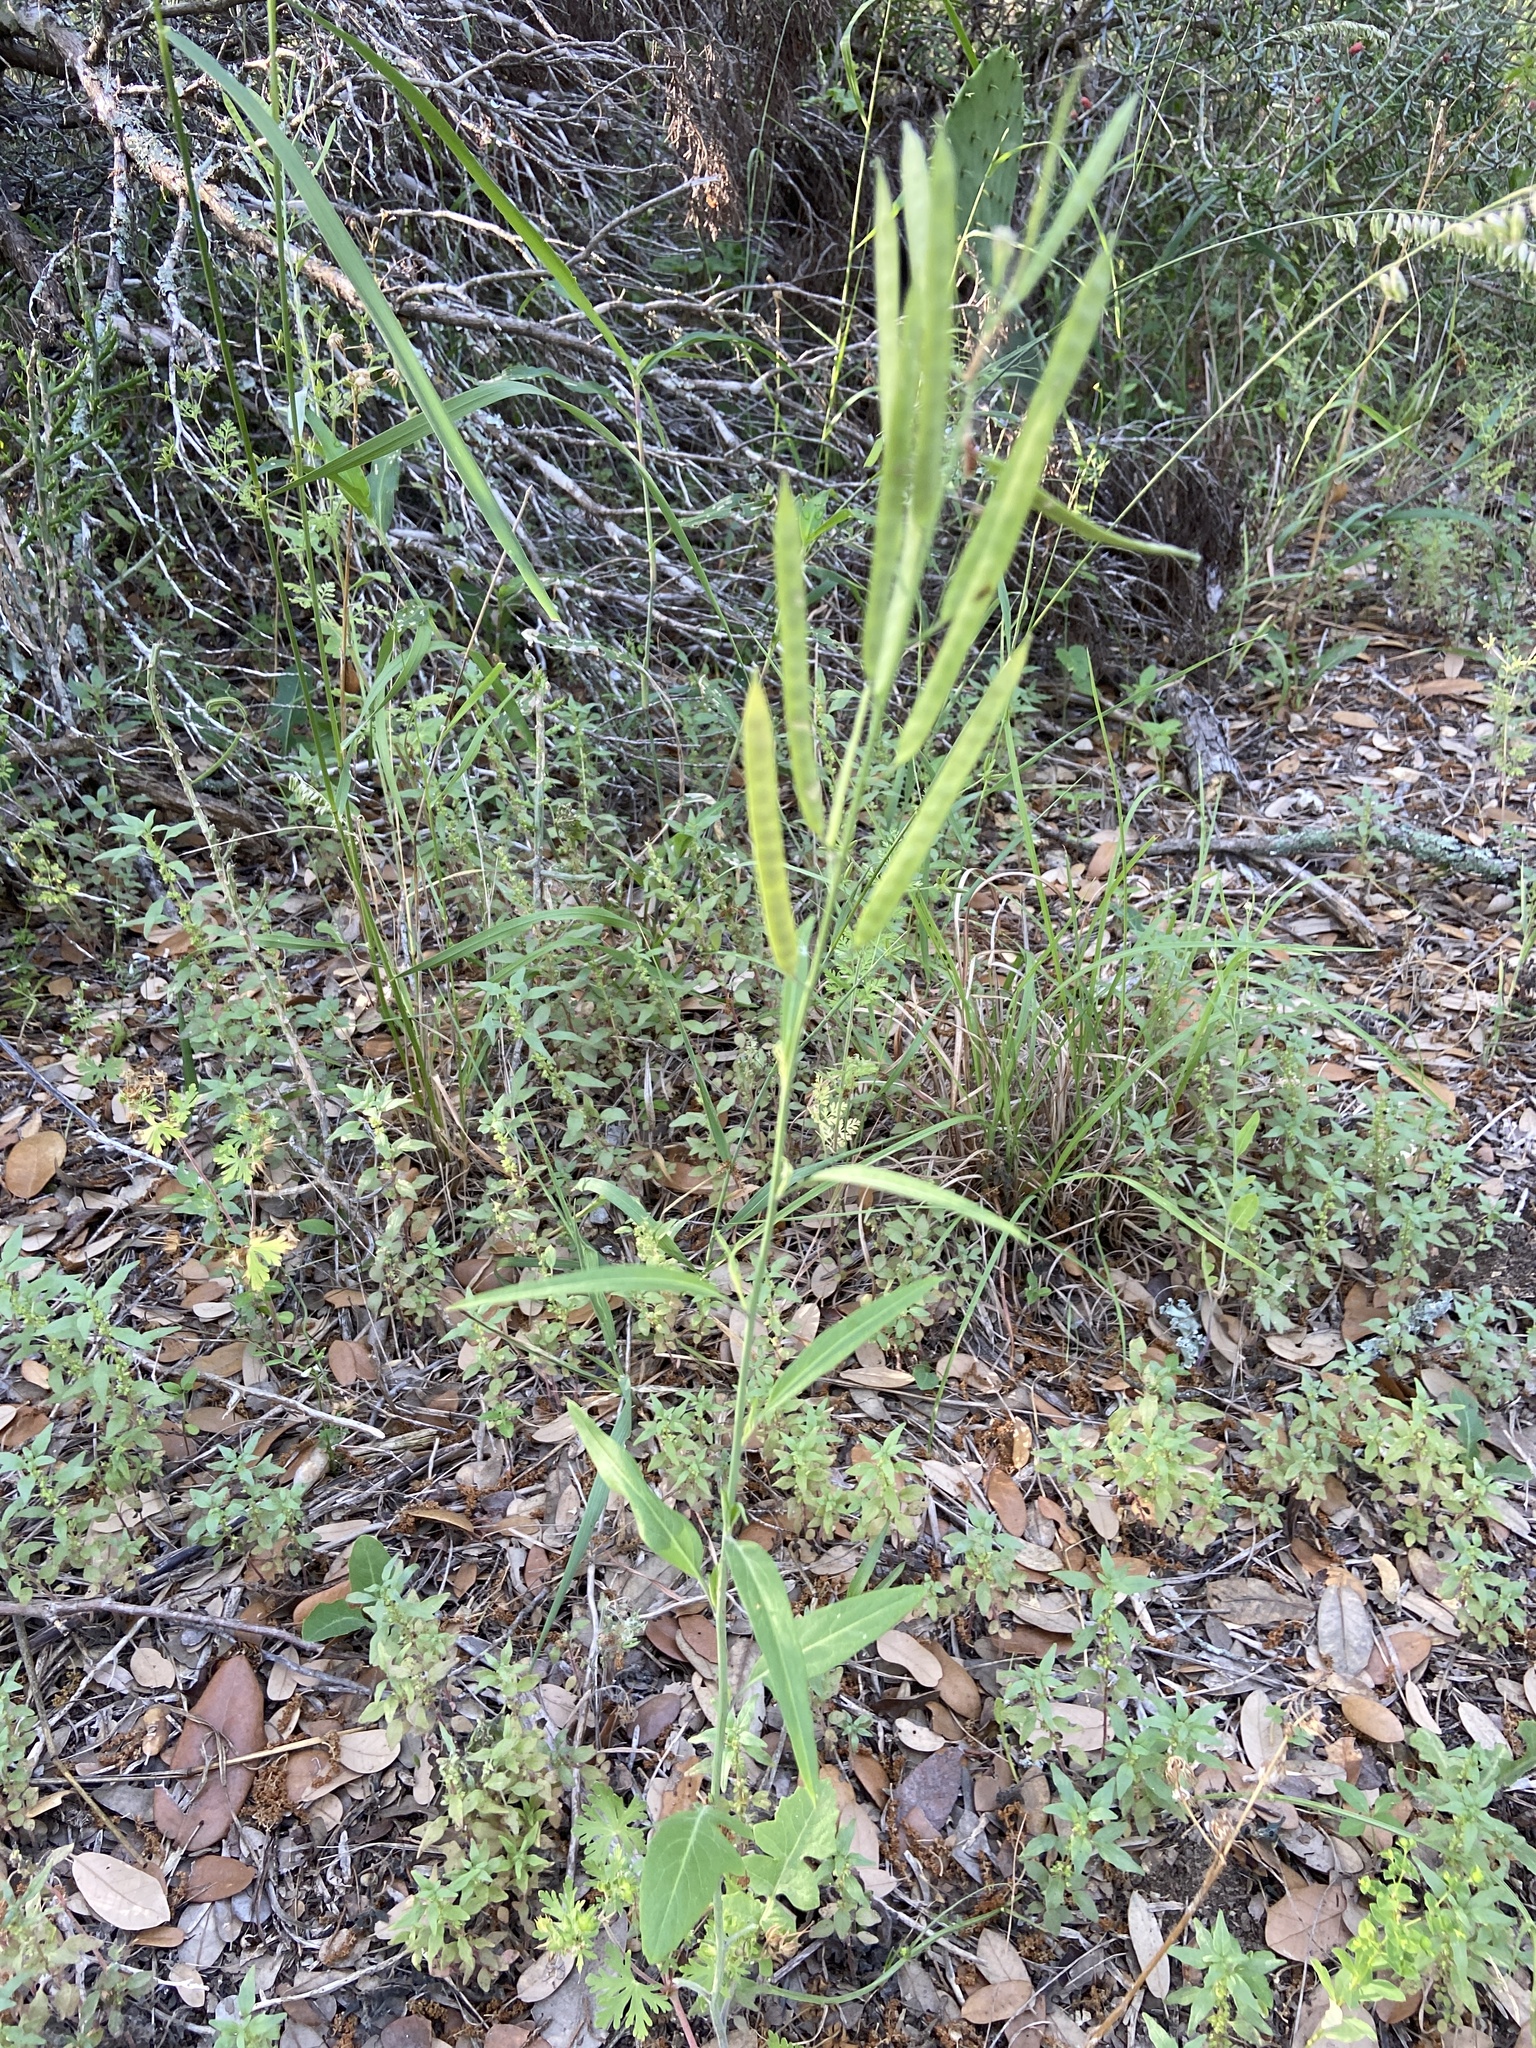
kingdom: Plantae
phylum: Tracheophyta
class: Magnoliopsida
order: Brassicales
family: Brassicaceae
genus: Streptanthus
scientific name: Streptanthus petiolaris
